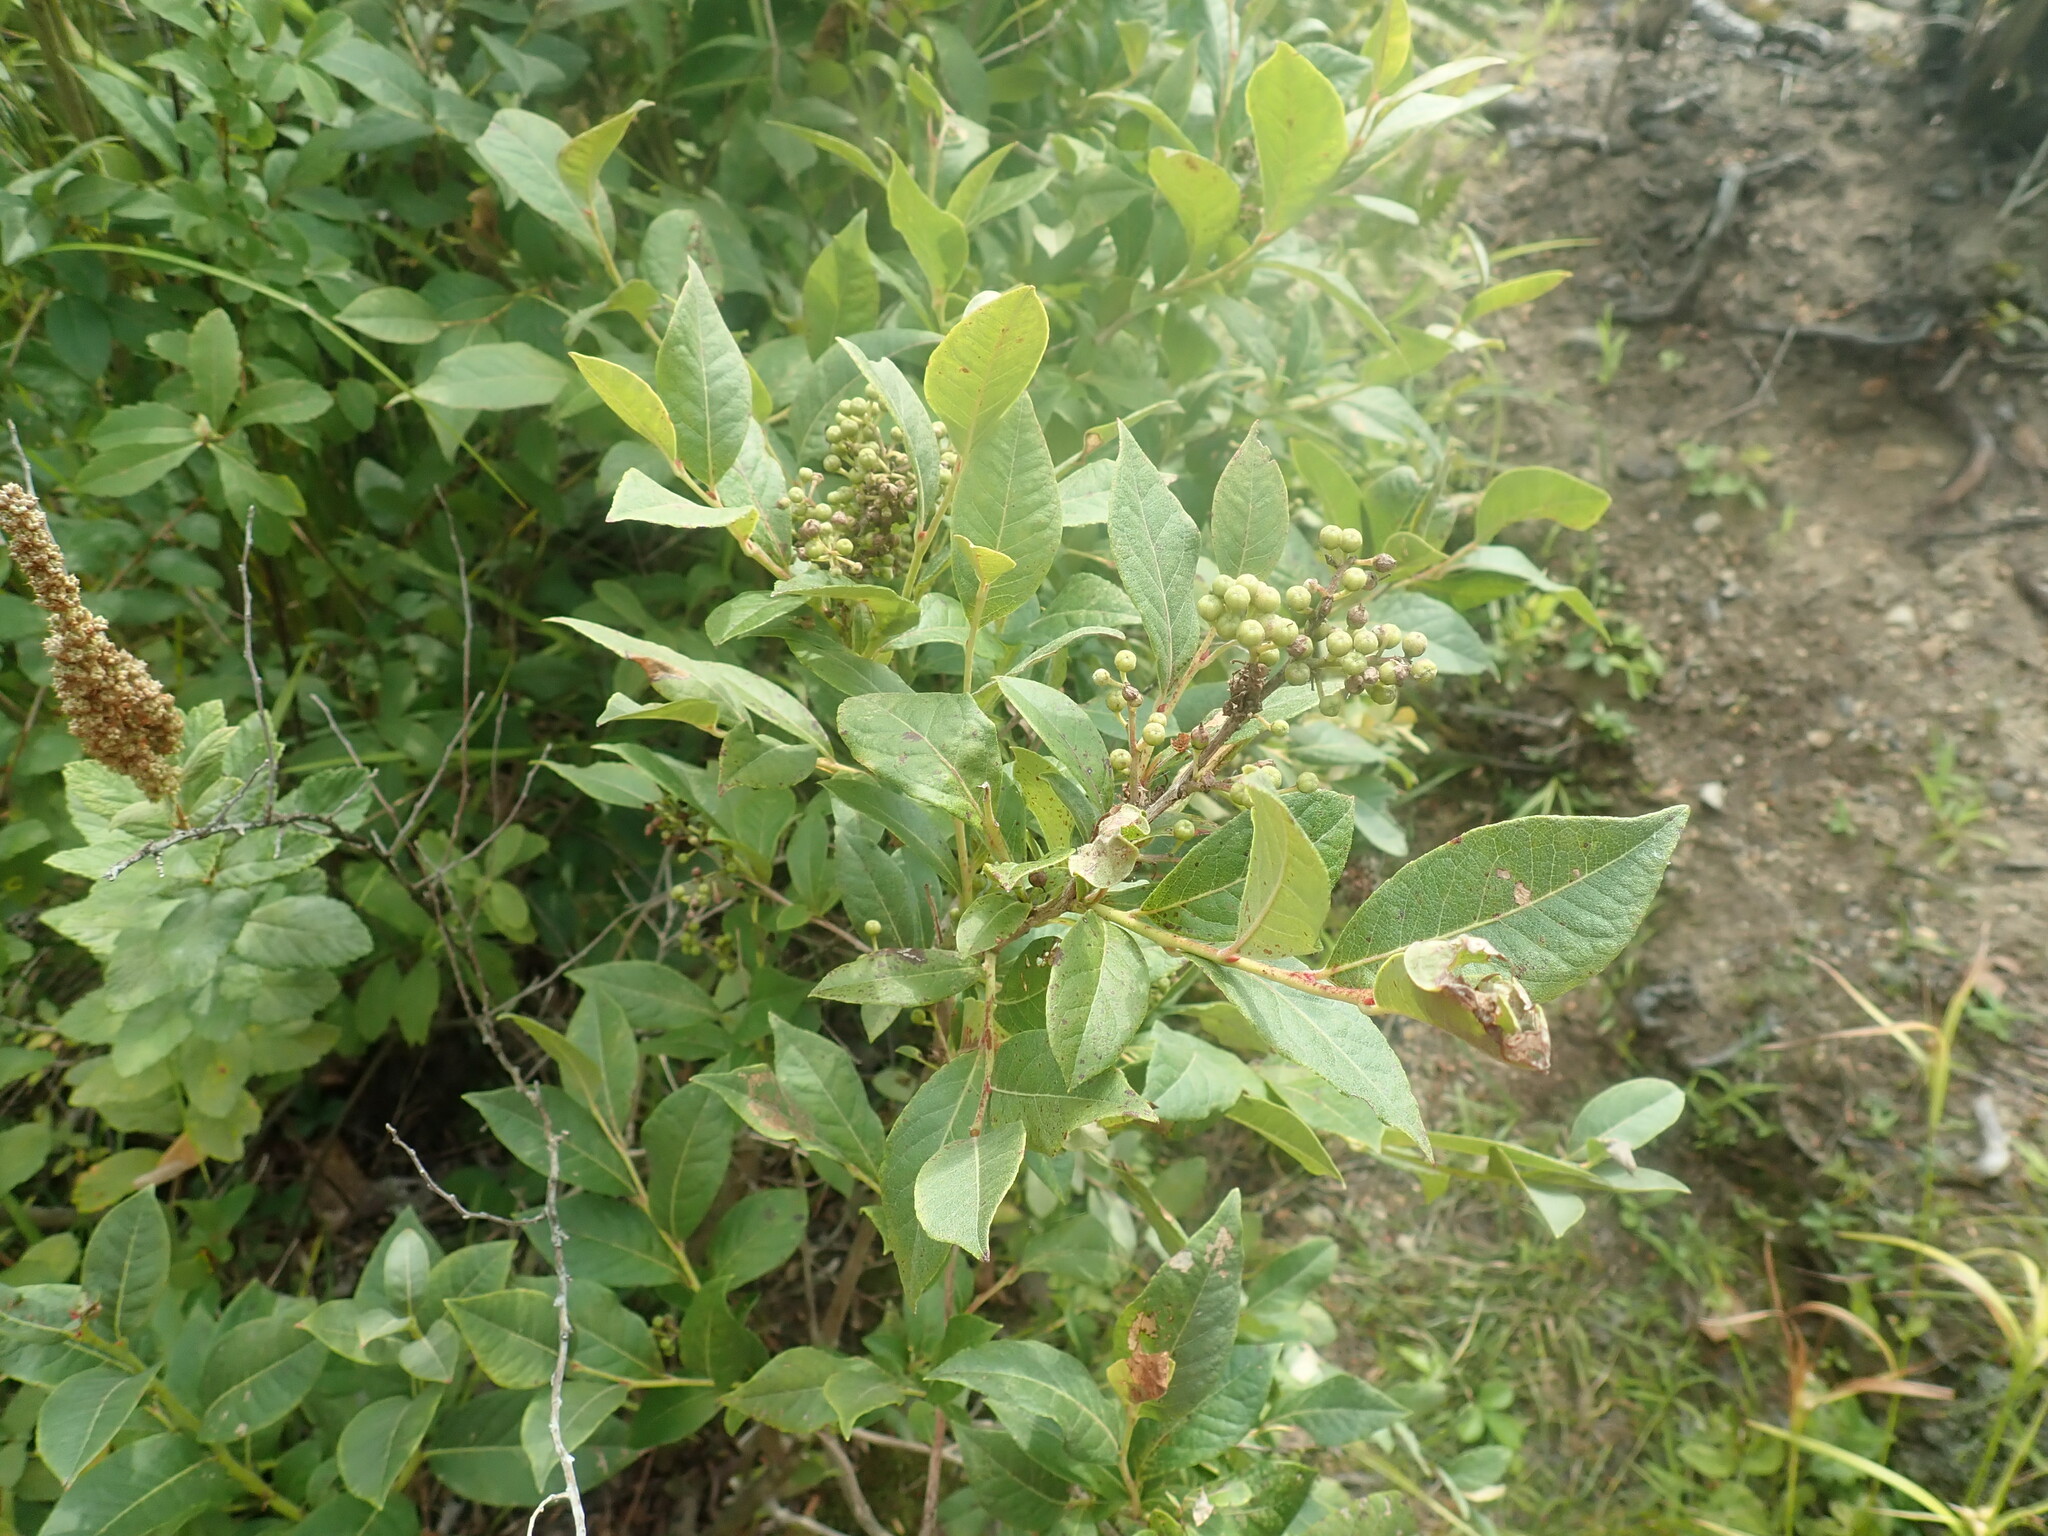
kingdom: Plantae
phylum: Tracheophyta
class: Magnoliopsida
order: Ericales
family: Ericaceae
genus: Lyonia
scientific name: Lyonia ligustrina
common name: Maleberry
